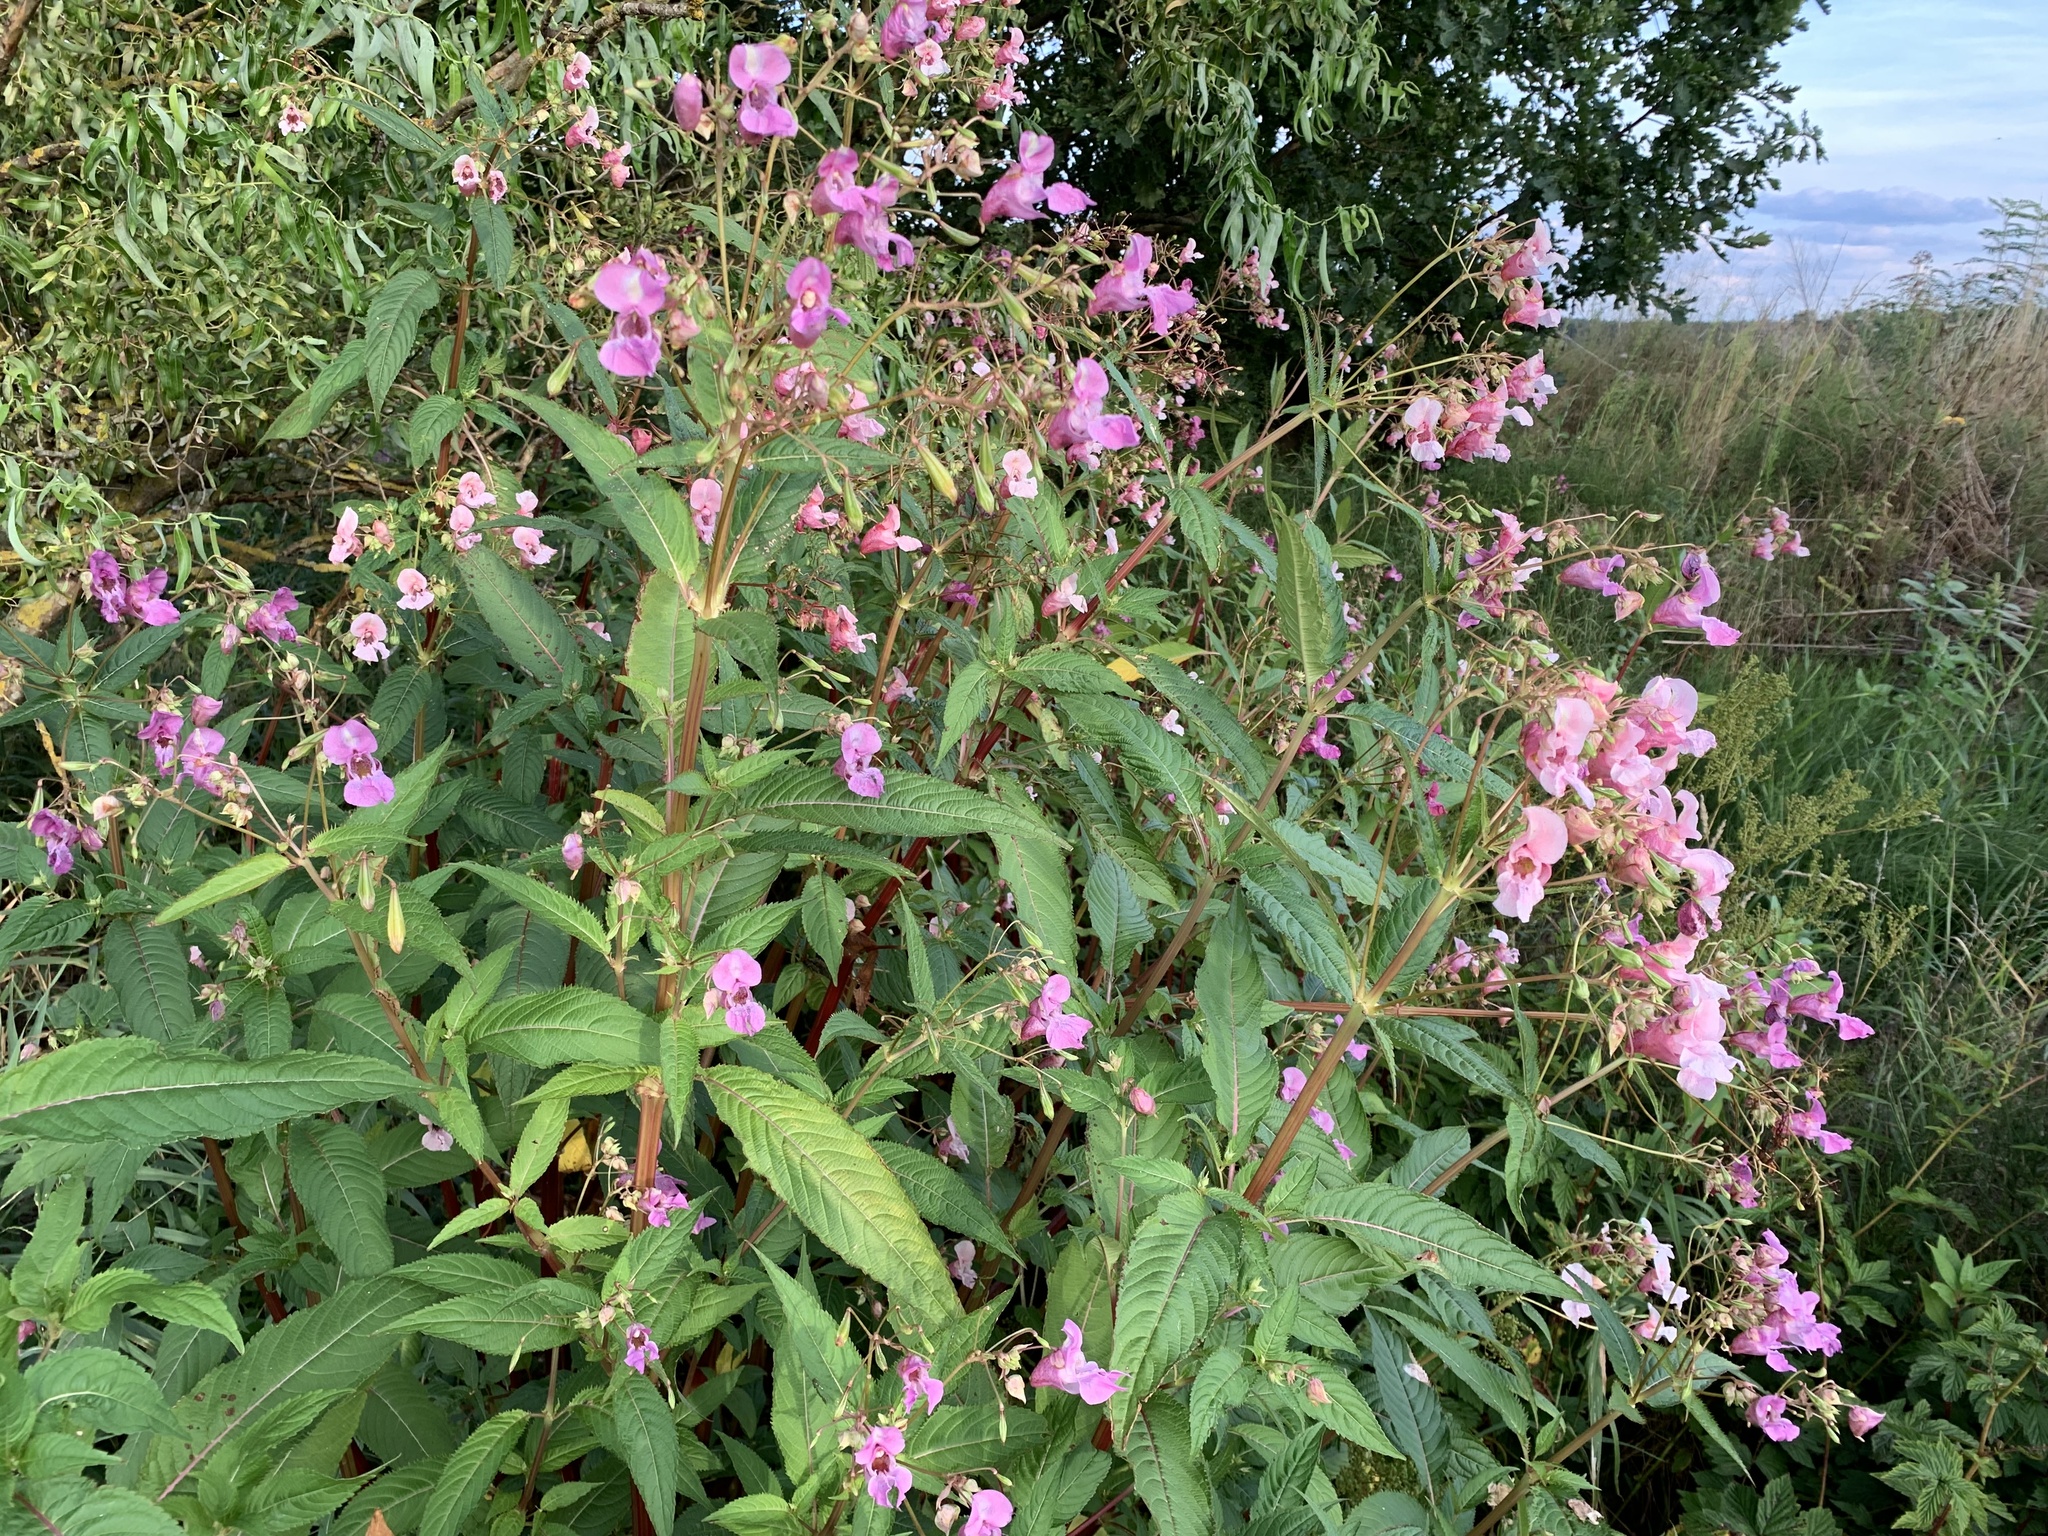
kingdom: Plantae
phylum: Tracheophyta
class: Magnoliopsida
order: Ericales
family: Balsaminaceae
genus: Impatiens
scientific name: Impatiens glandulifera
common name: Himalayan balsam
